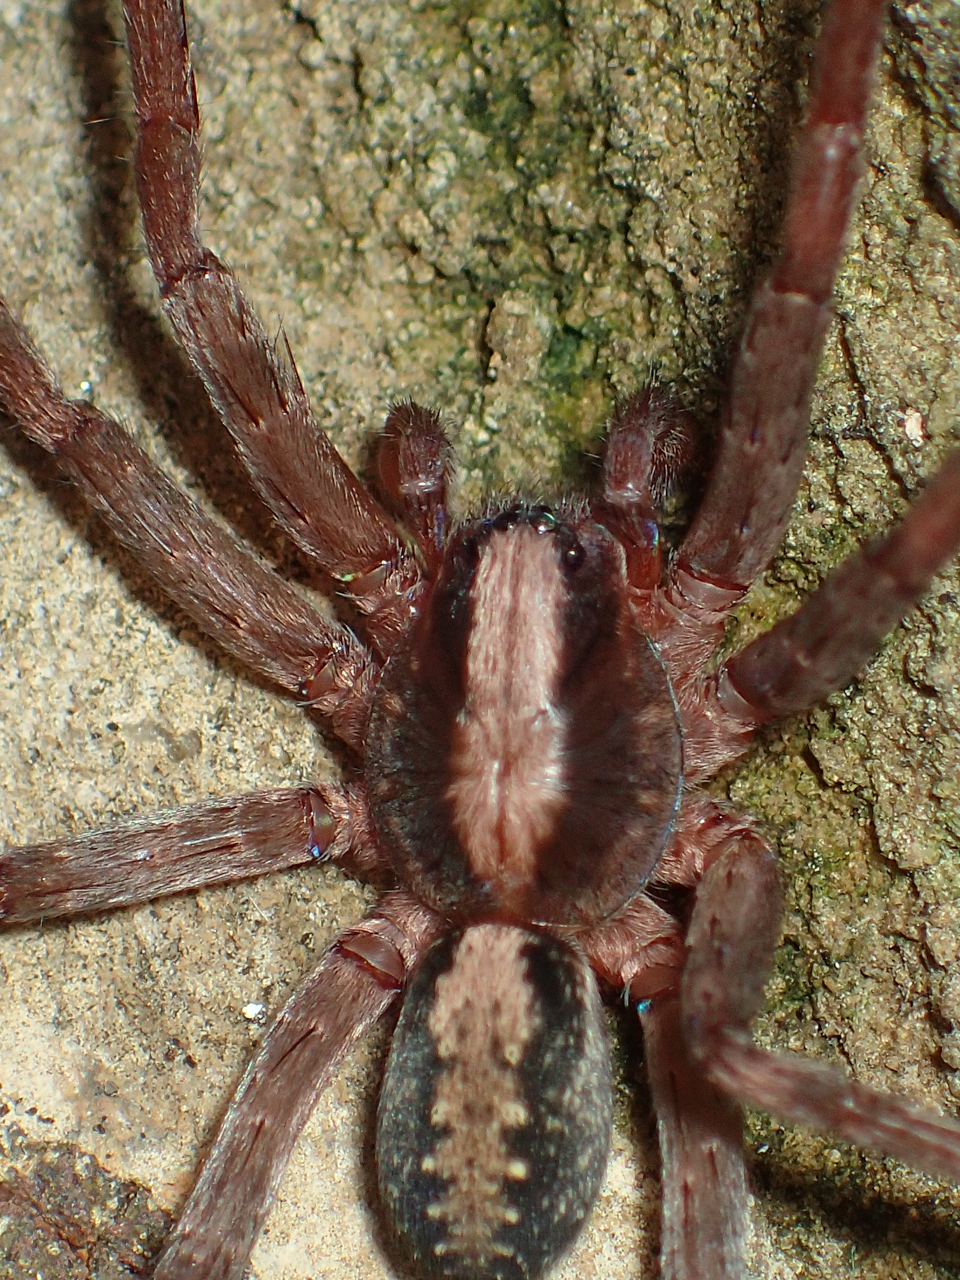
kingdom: Animalia
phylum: Arthropoda
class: Arachnida
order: Araneae
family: Ctenidae
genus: Ctenus
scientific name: Ctenus hibernalis
